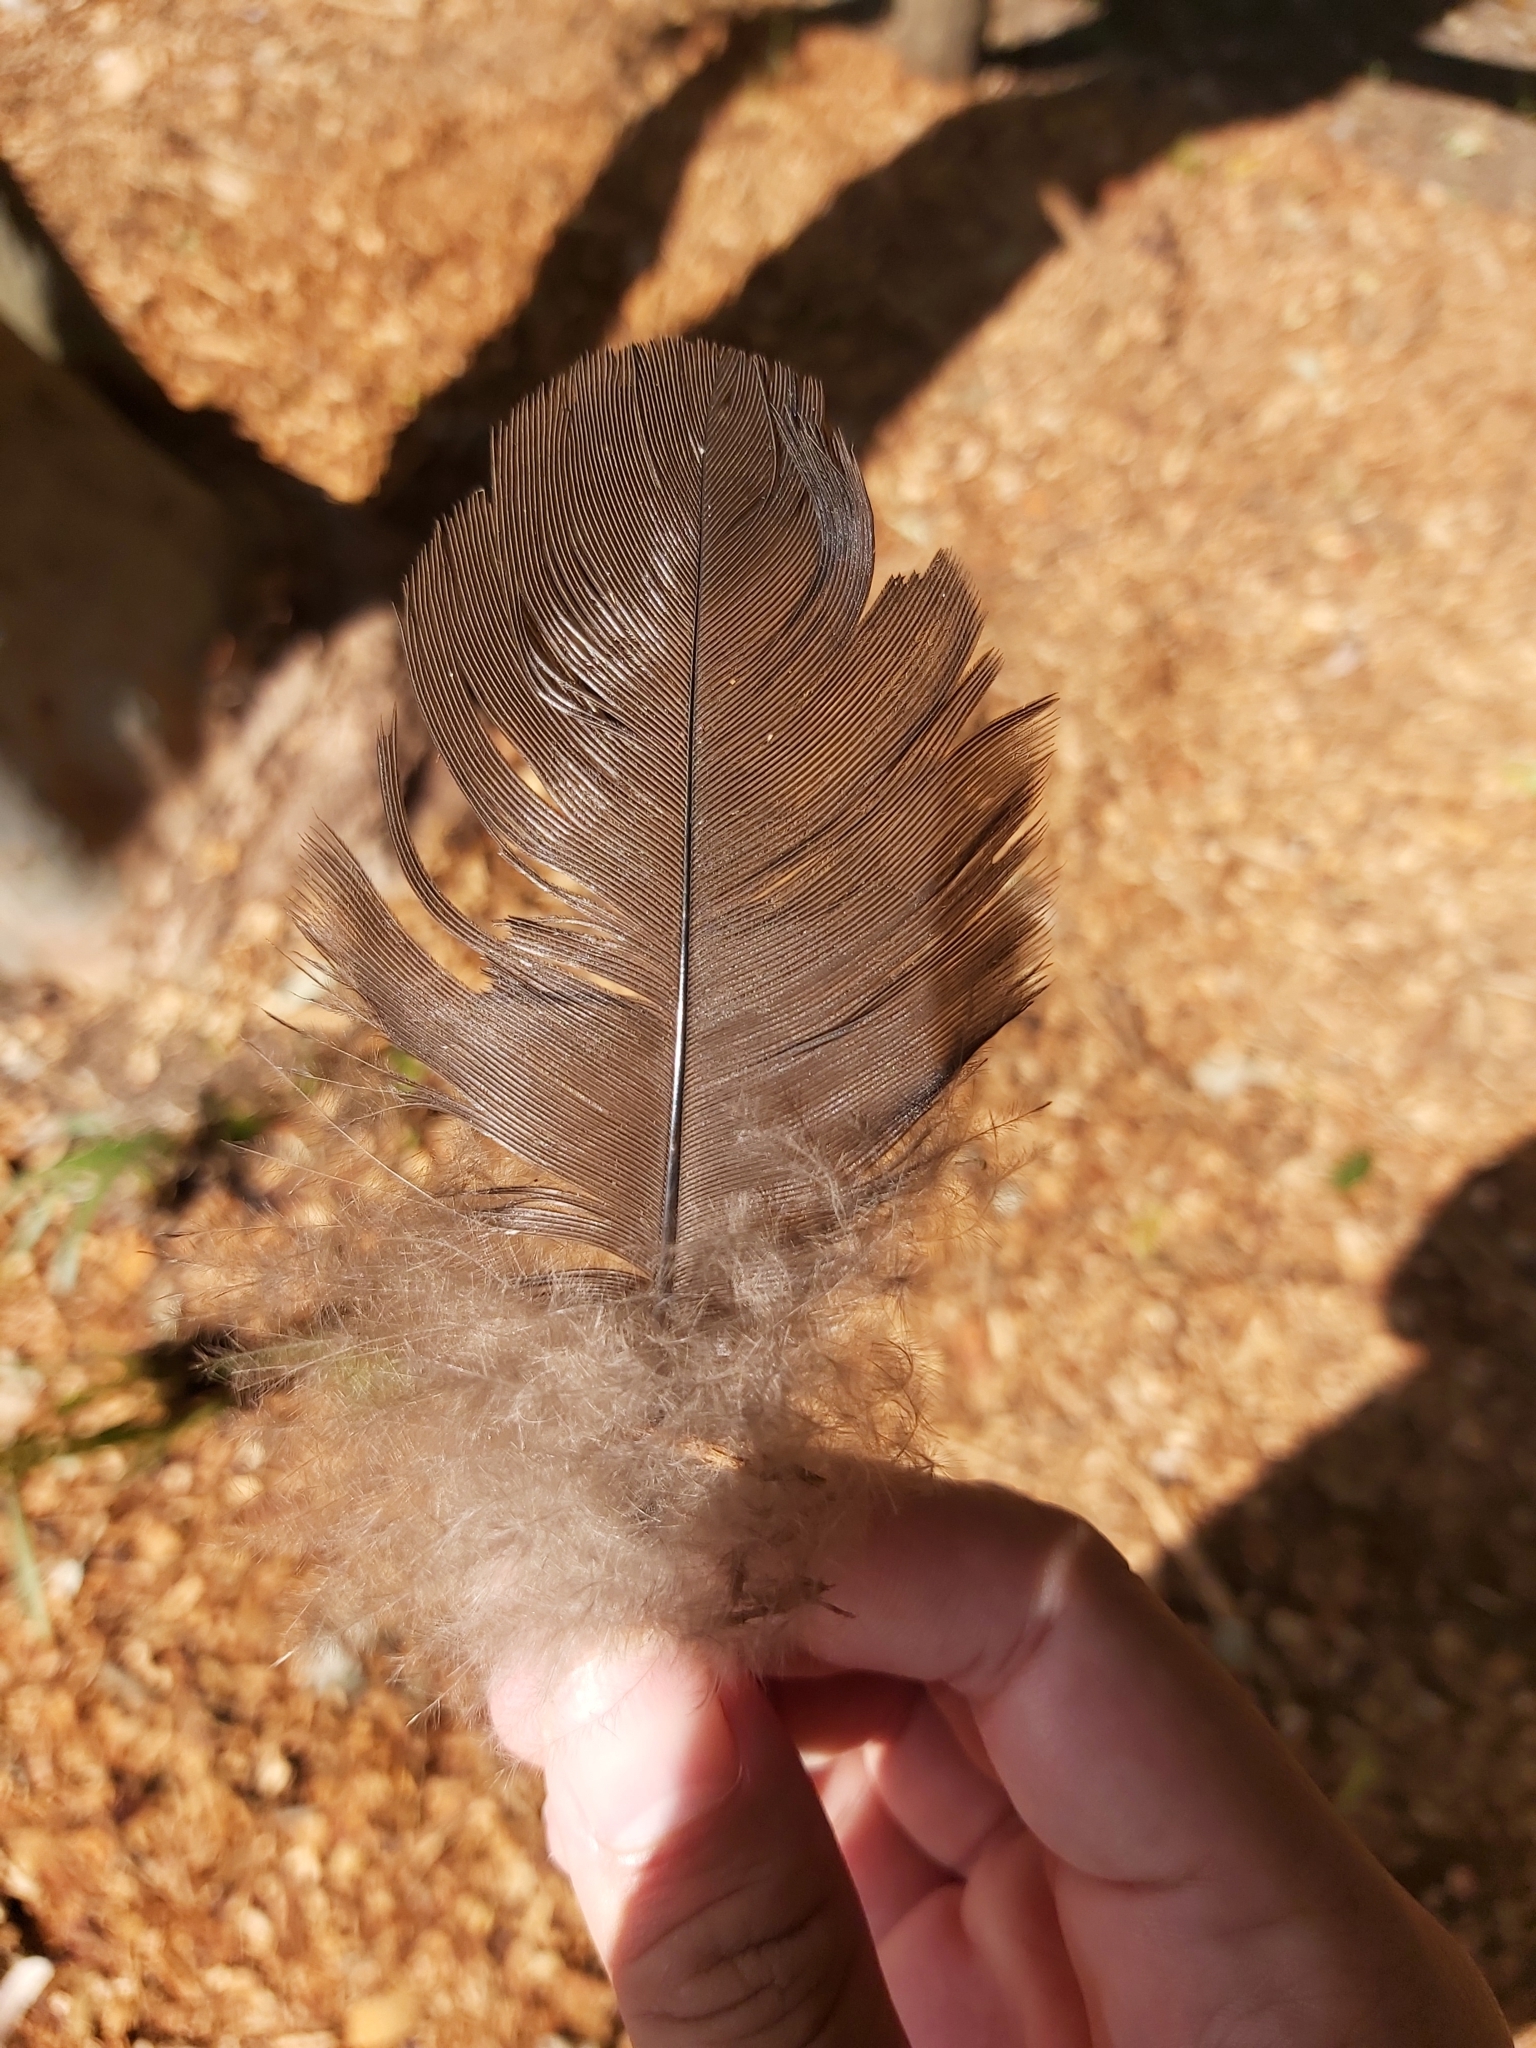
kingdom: Animalia
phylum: Chordata
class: Aves
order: Galliformes
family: Megapodiidae
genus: Alectura
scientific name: Alectura lathami
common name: Australian brushturkey
